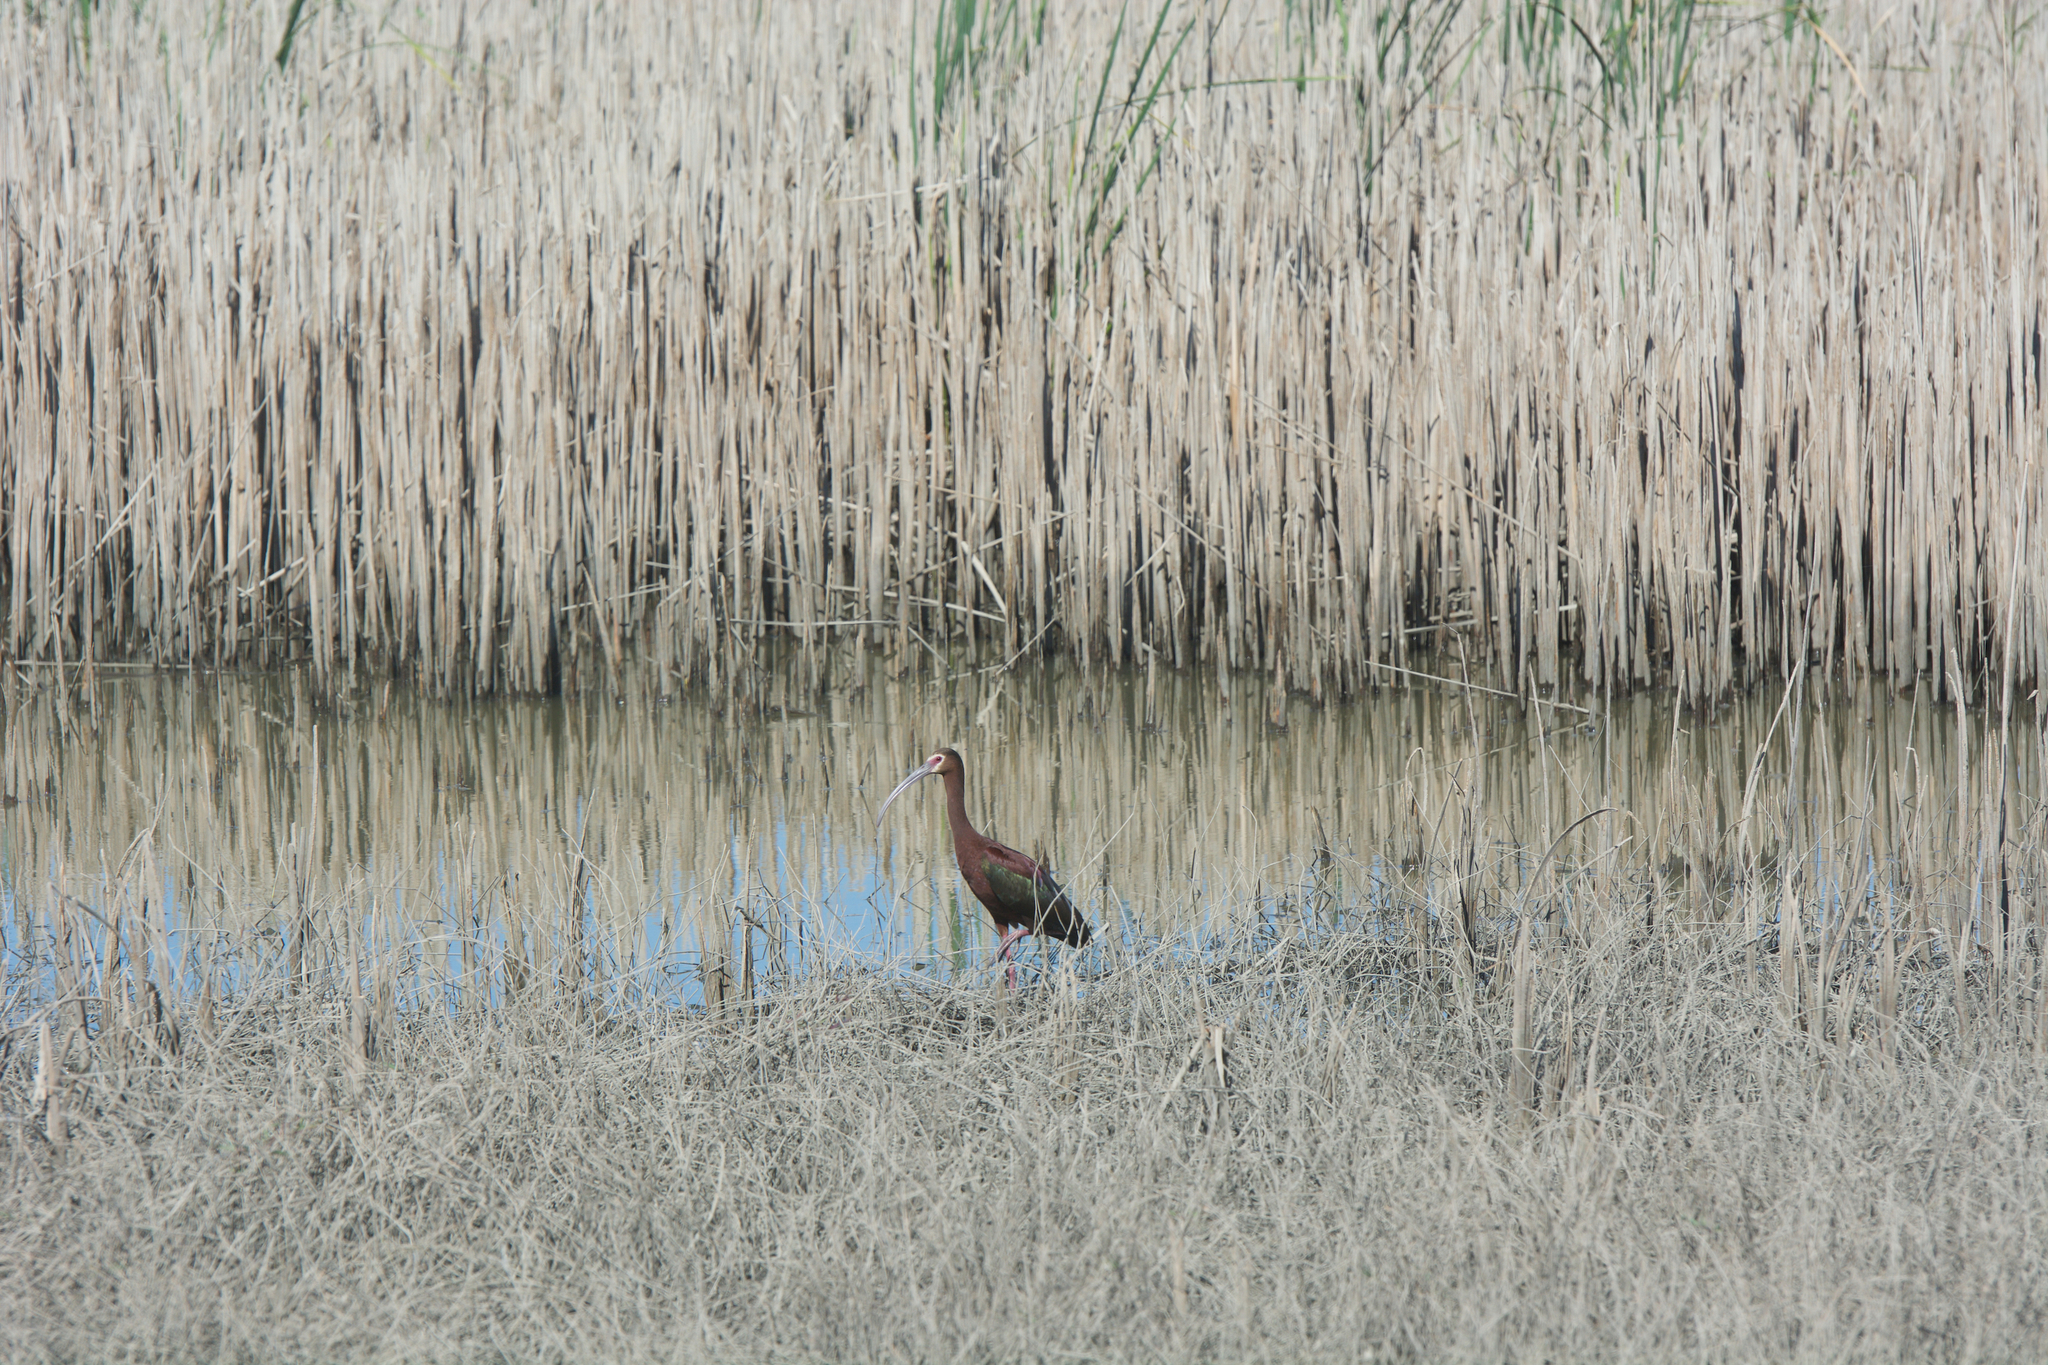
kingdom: Animalia
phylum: Chordata
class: Aves
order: Pelecaniformes
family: Threskiornithidae
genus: Plegadis
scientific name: Plegadis chihi
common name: White-faced ibis
